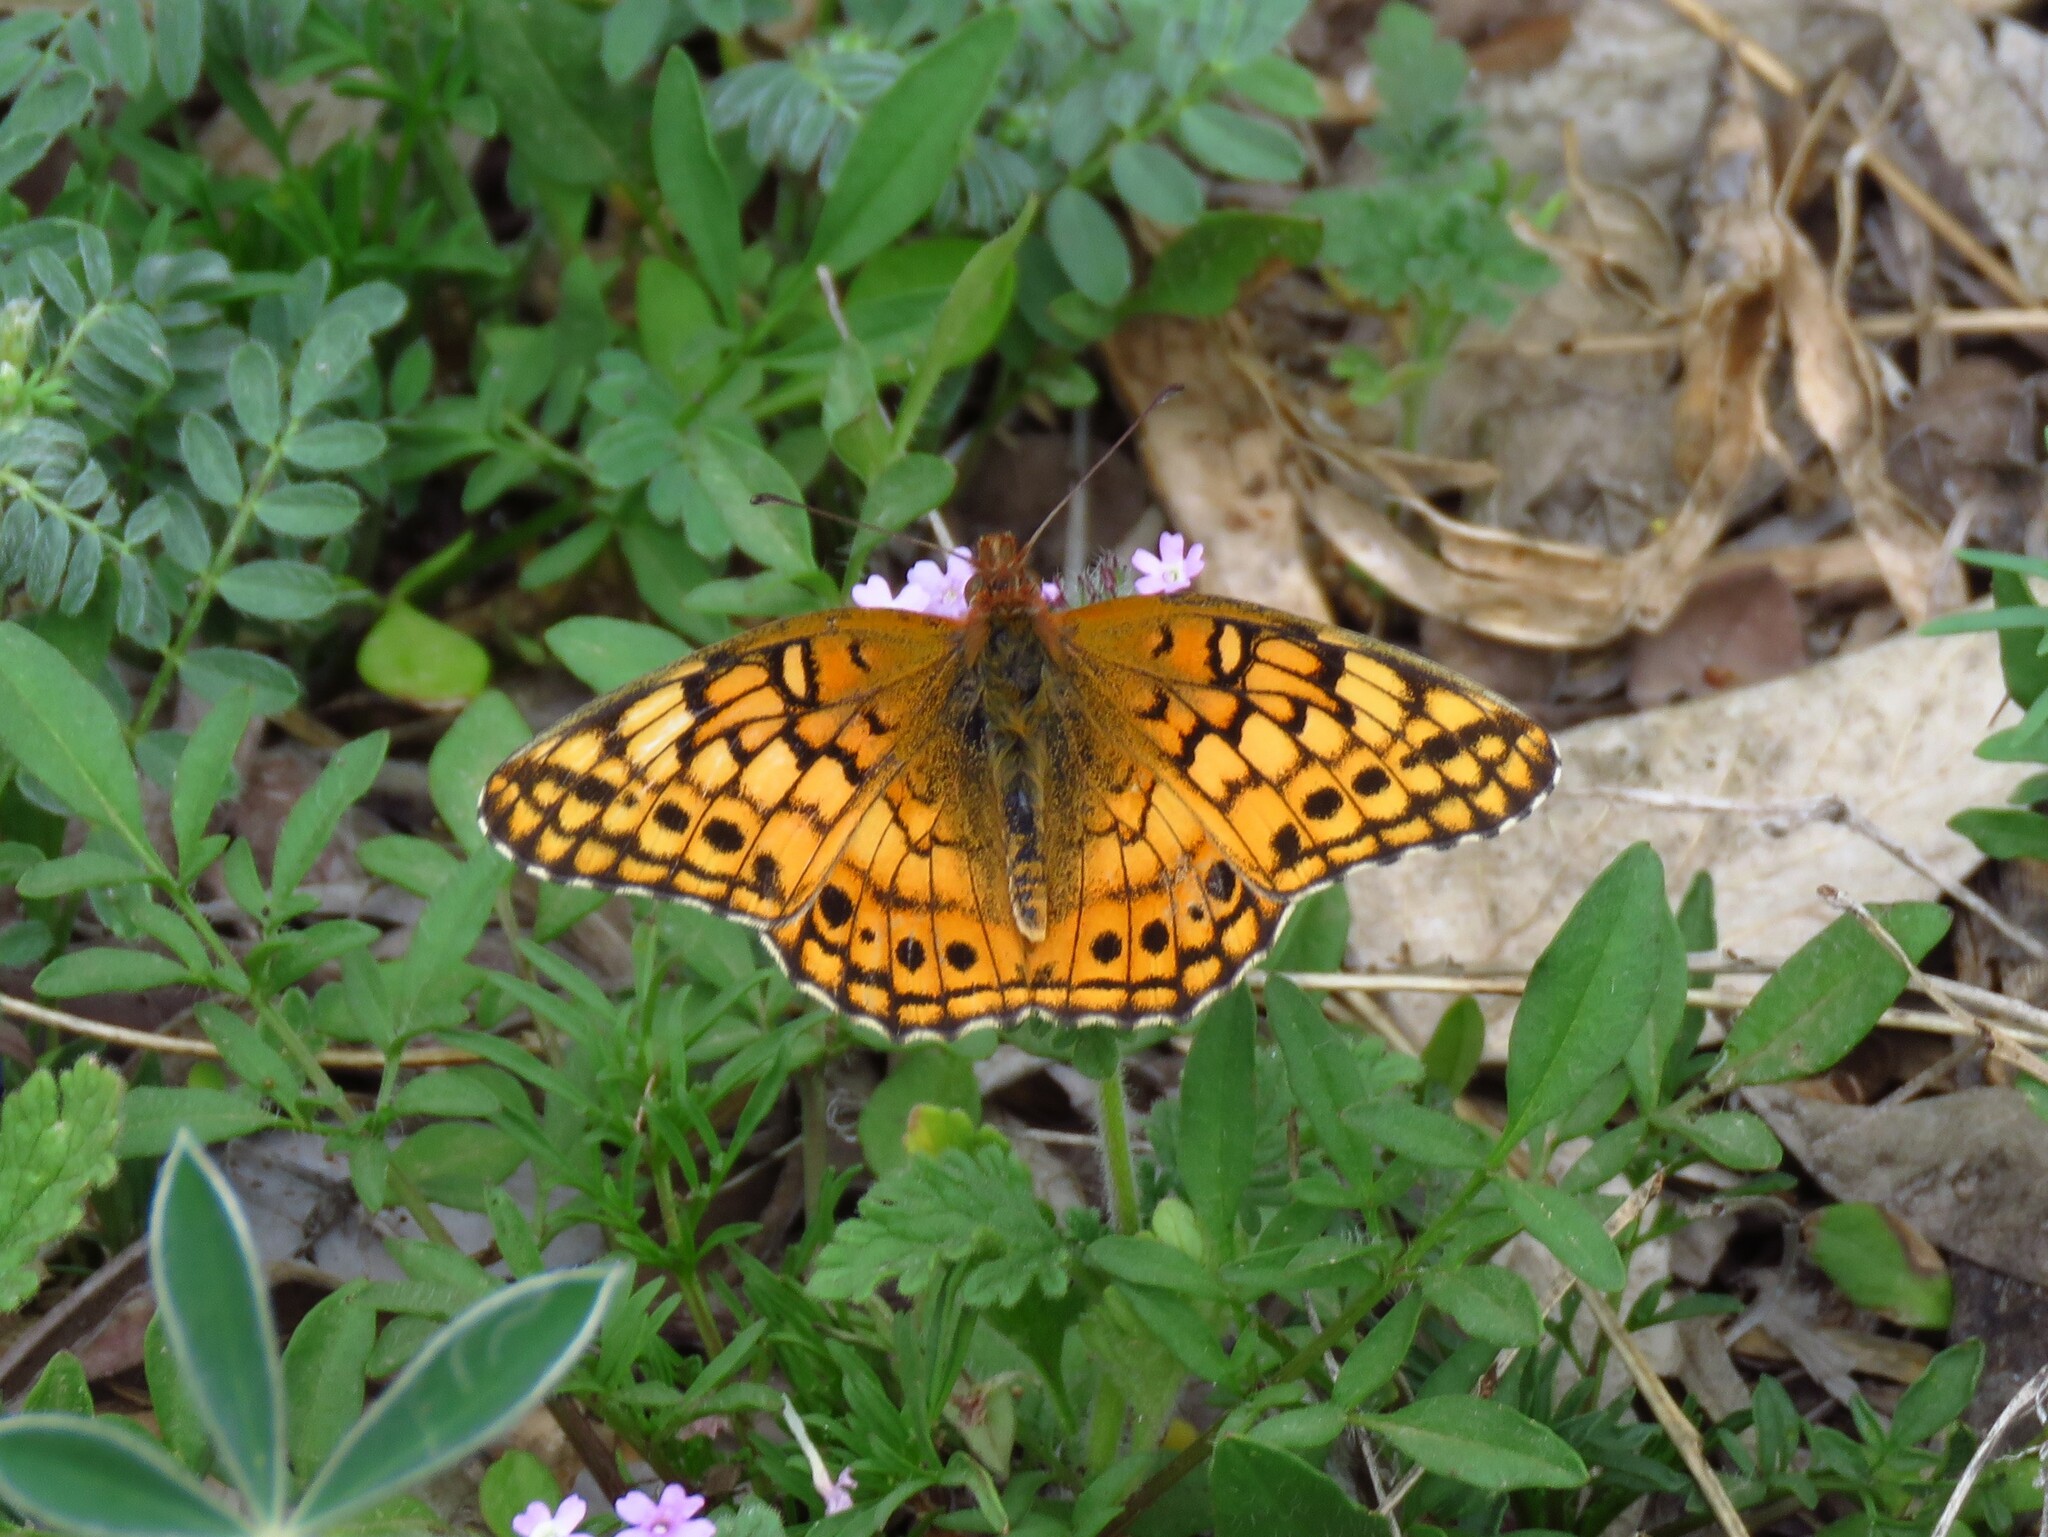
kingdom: Animalia
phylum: Arthropoda
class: Insecta
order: Lepidoptera
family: Nymphalidae
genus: Euptoieta
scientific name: Euptoieta claudia
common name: Variegated fritillary
